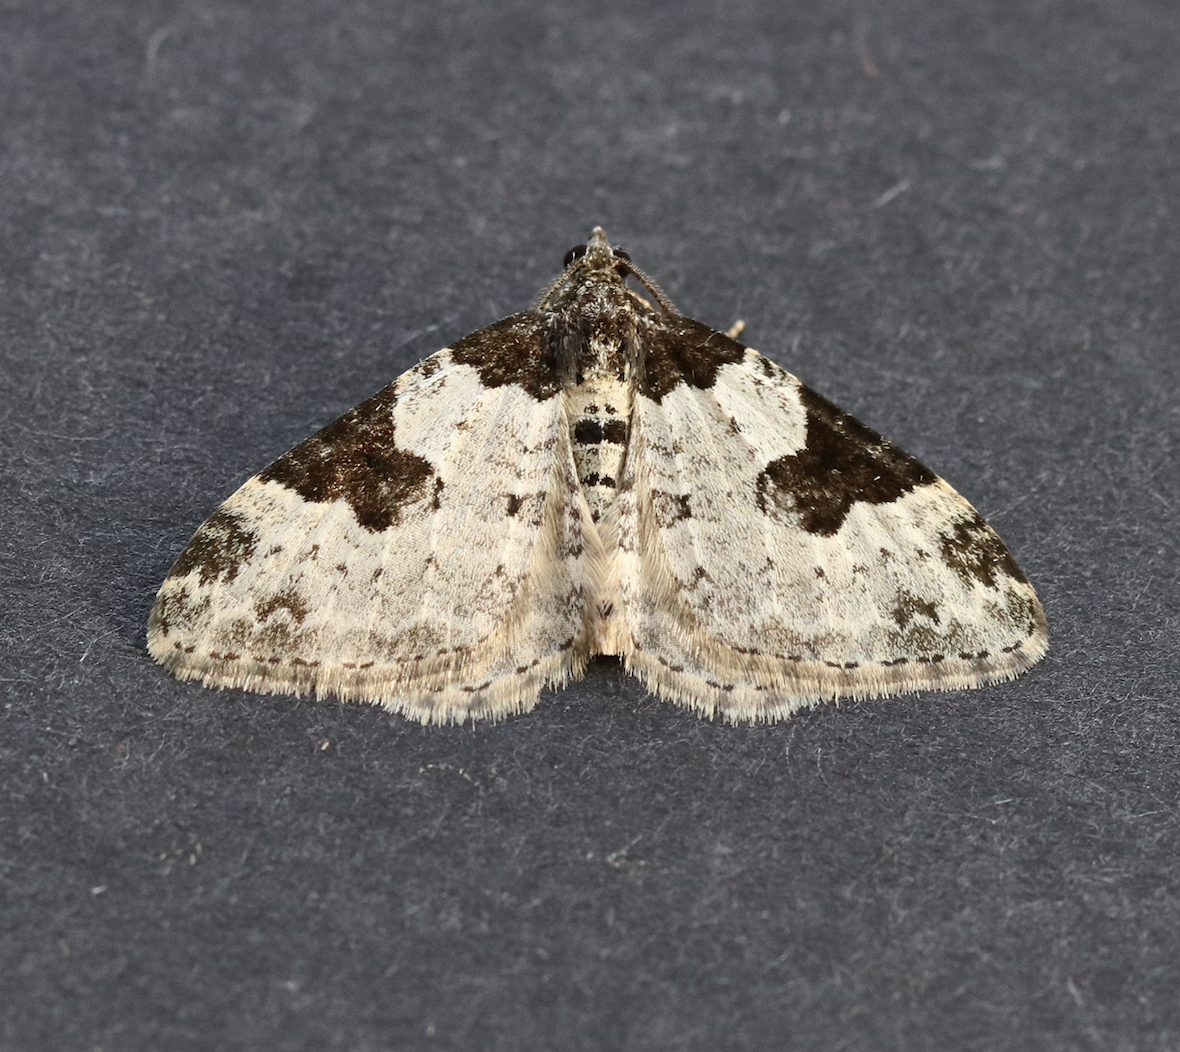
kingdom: Animalia
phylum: Arthropoda
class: Insecta
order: Lepidoptera
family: Geometridae
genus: Xanthorhoe
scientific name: Xanthorhoe fluctuata
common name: Garden carpet
